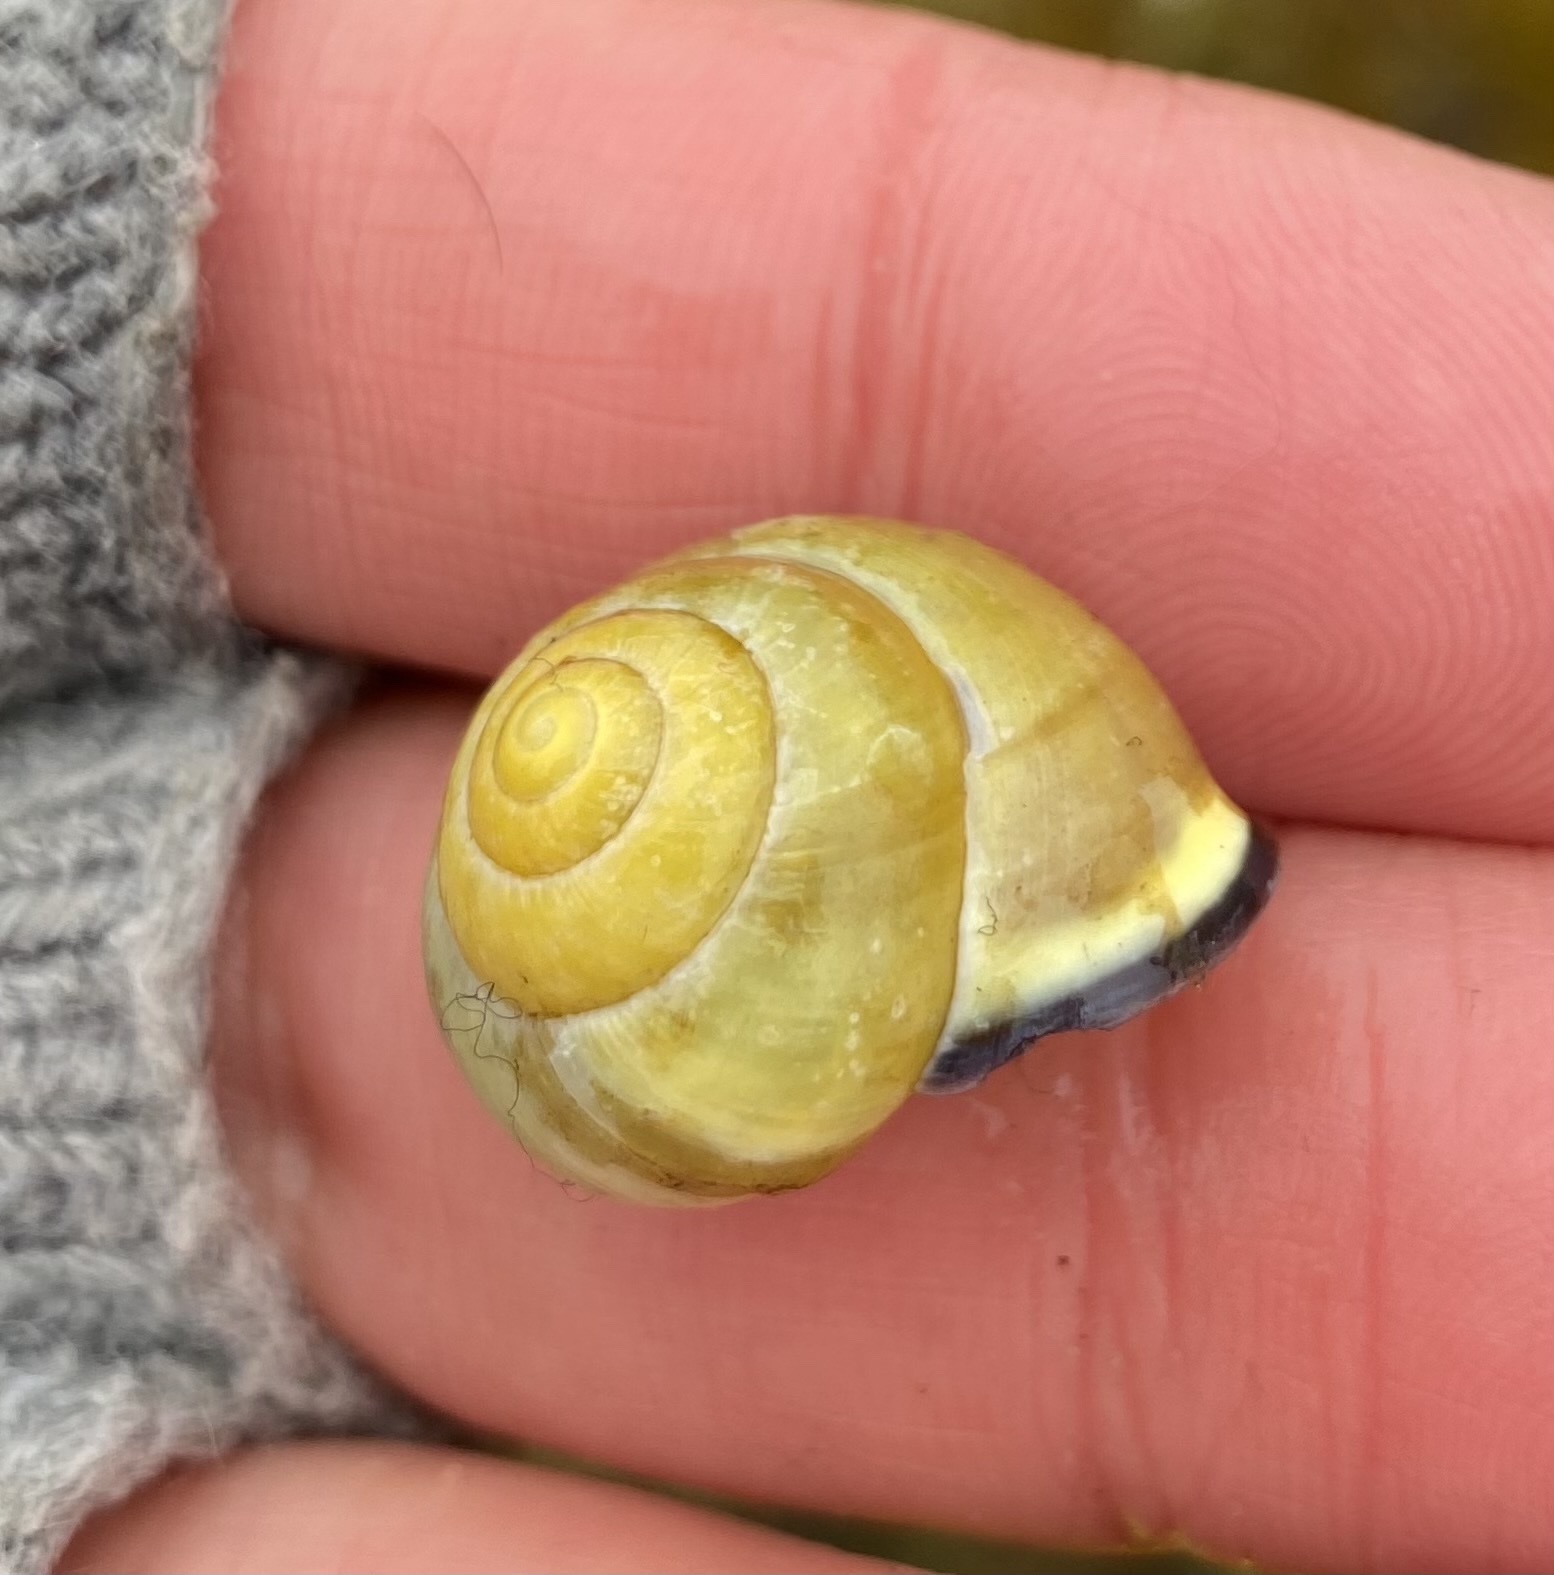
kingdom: Animalia
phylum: Mollusca
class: Gastropoda
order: Stylommatophora
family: Helicidae
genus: Cepaea
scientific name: Cepaea nemoralis
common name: Grovesnail
